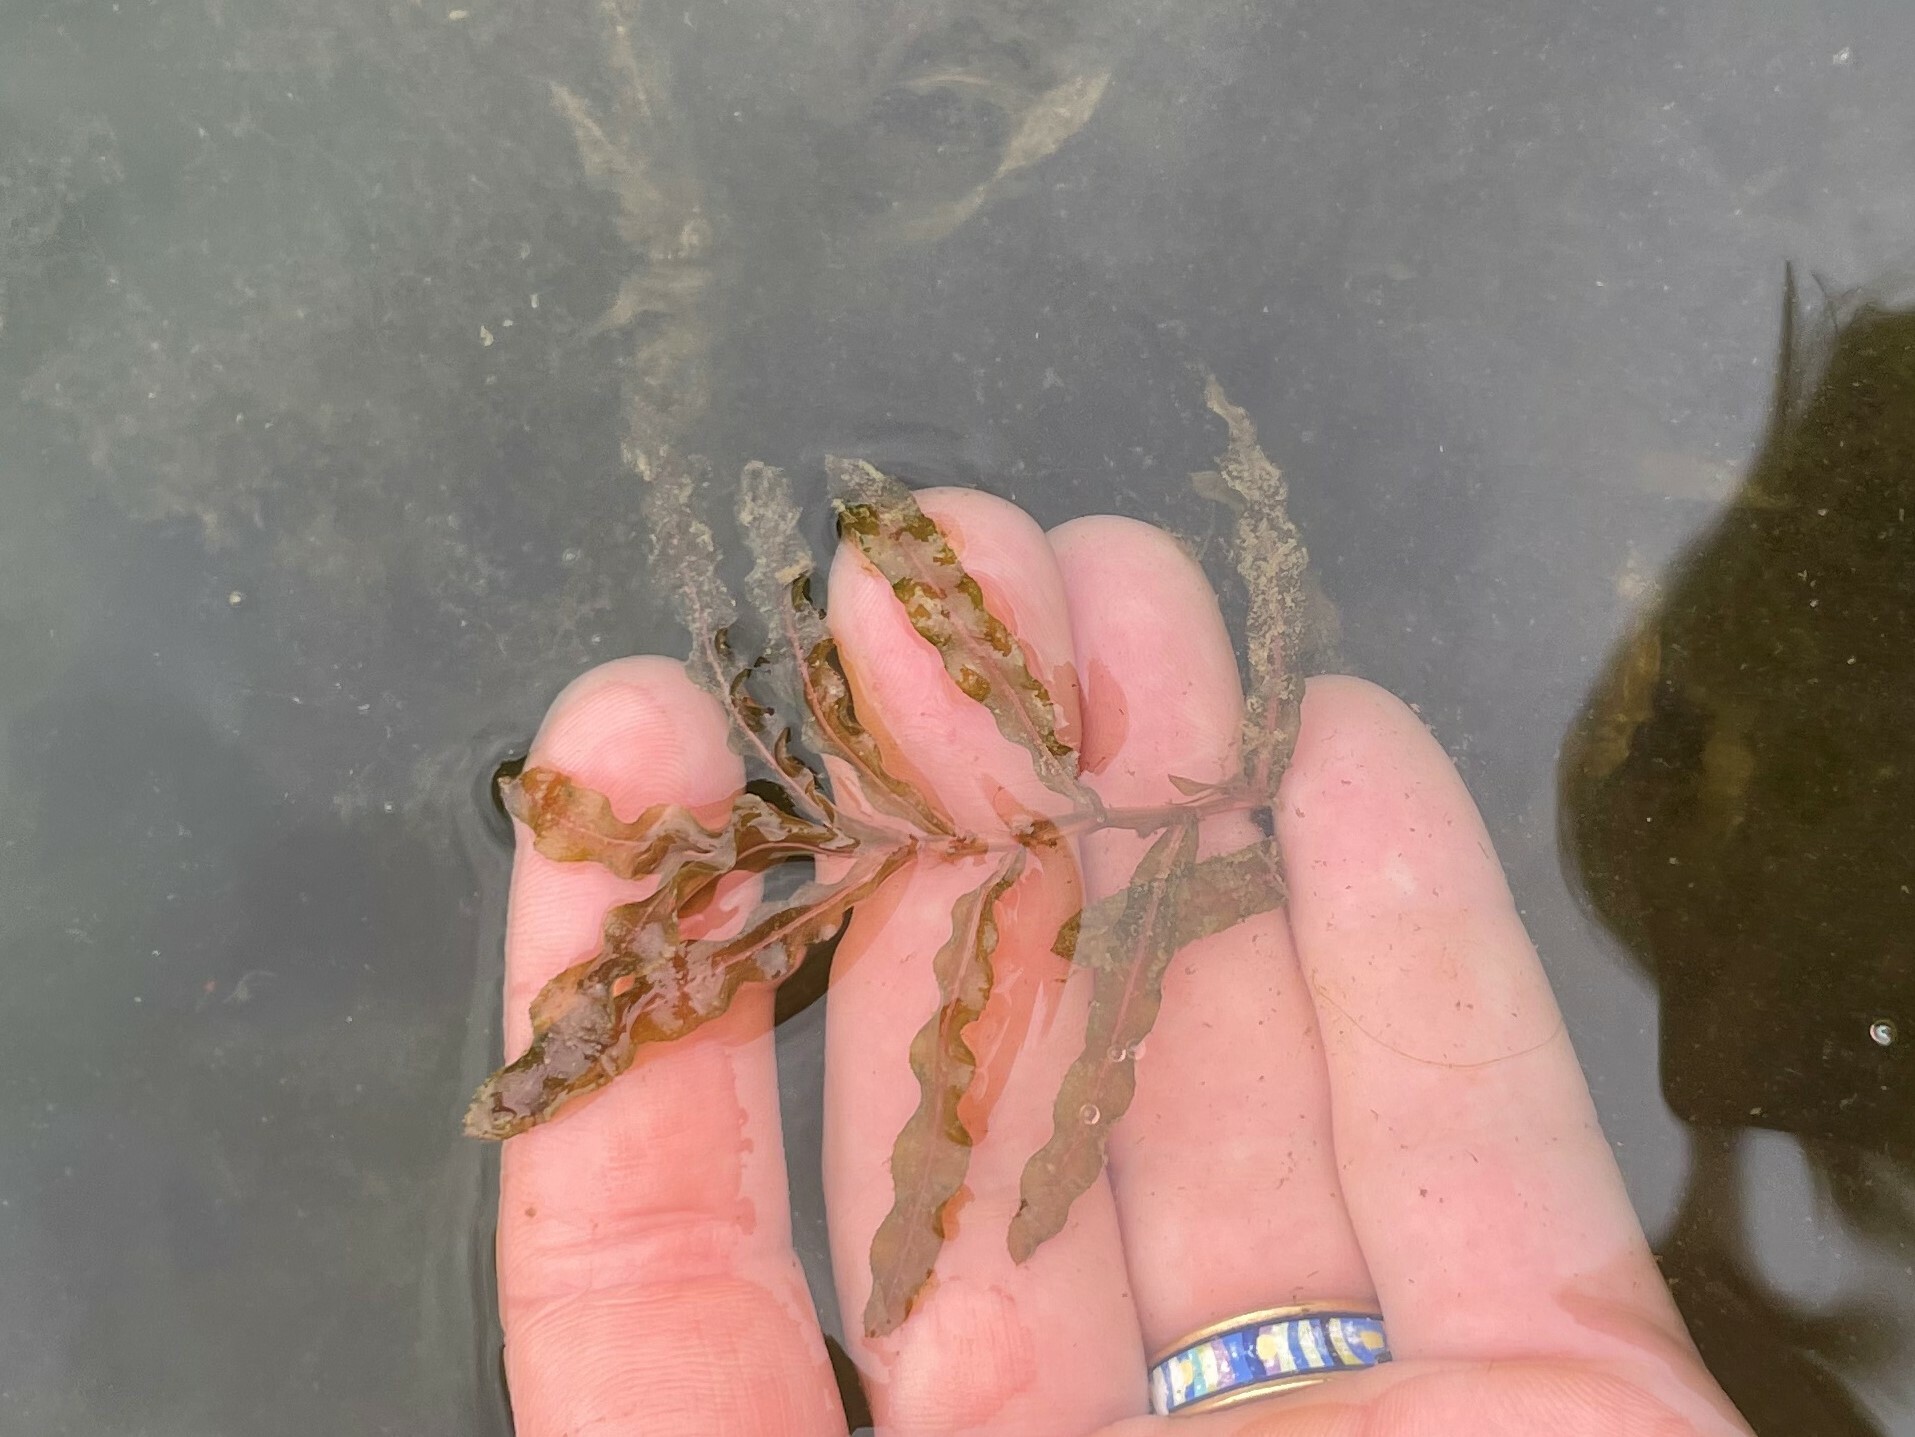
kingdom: Plantae
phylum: Tracheophyta
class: Liliopsida
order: Alismatales
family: Potamogetonaceae
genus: Potamogeton
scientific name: Potamogeton crispus
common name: Curled pondweed
